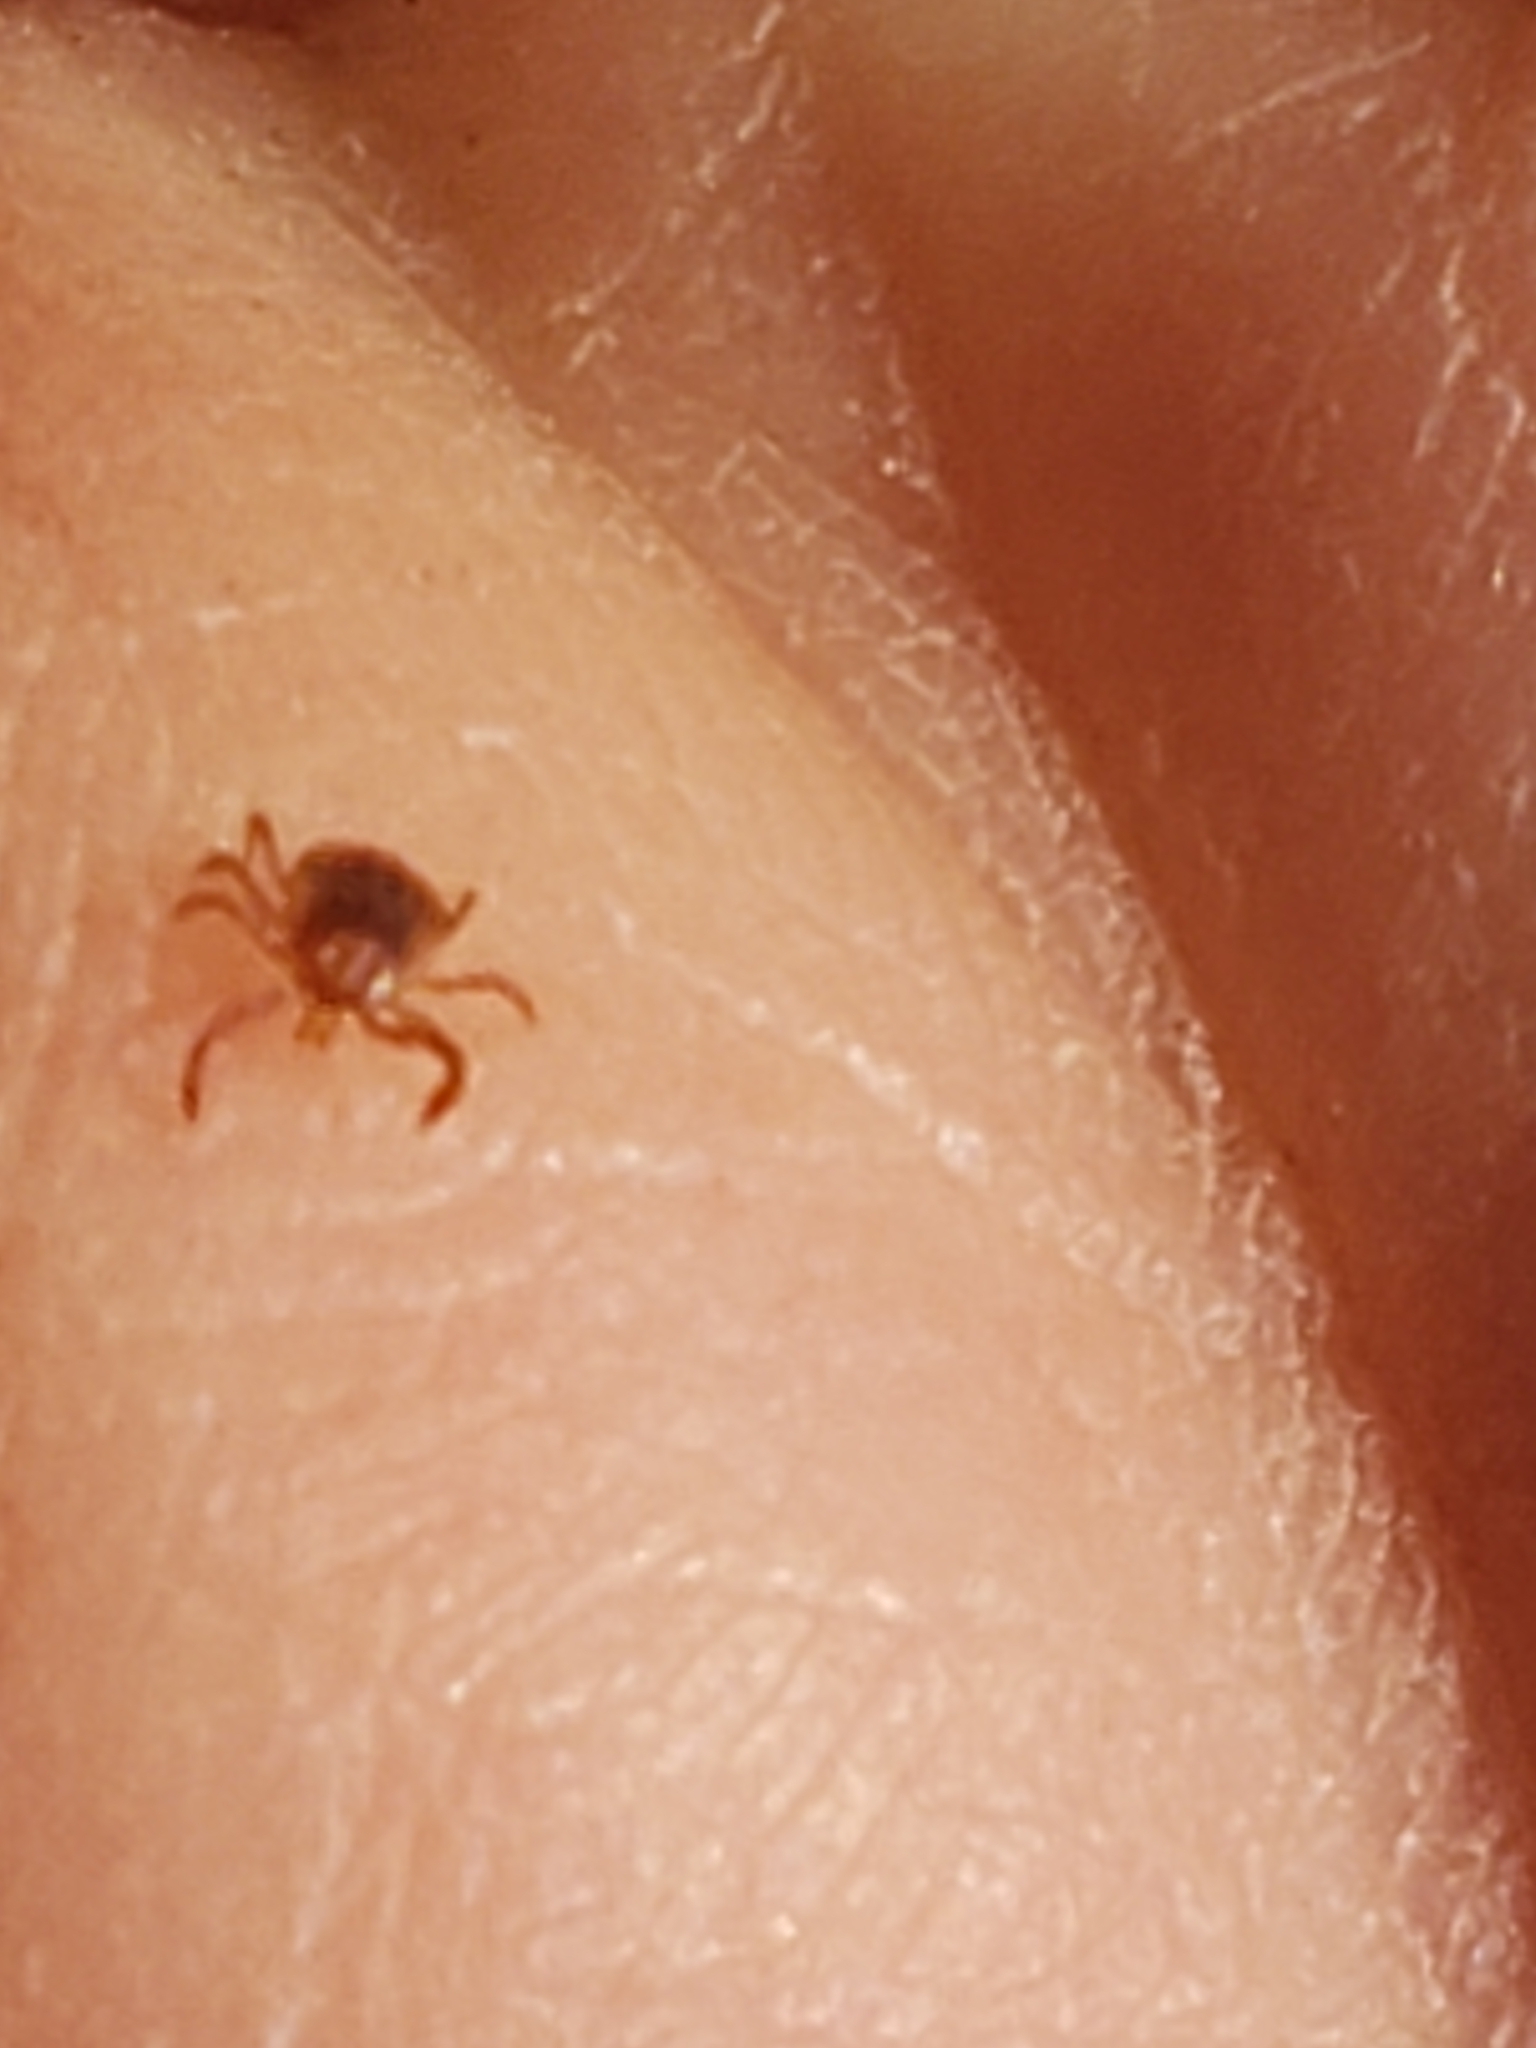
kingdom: Animalia
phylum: Arthropoda
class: Arachnida
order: Ixodida
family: Ixodidae
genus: Amblyomma
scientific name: Amblyomma americanum
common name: Lone star tick
